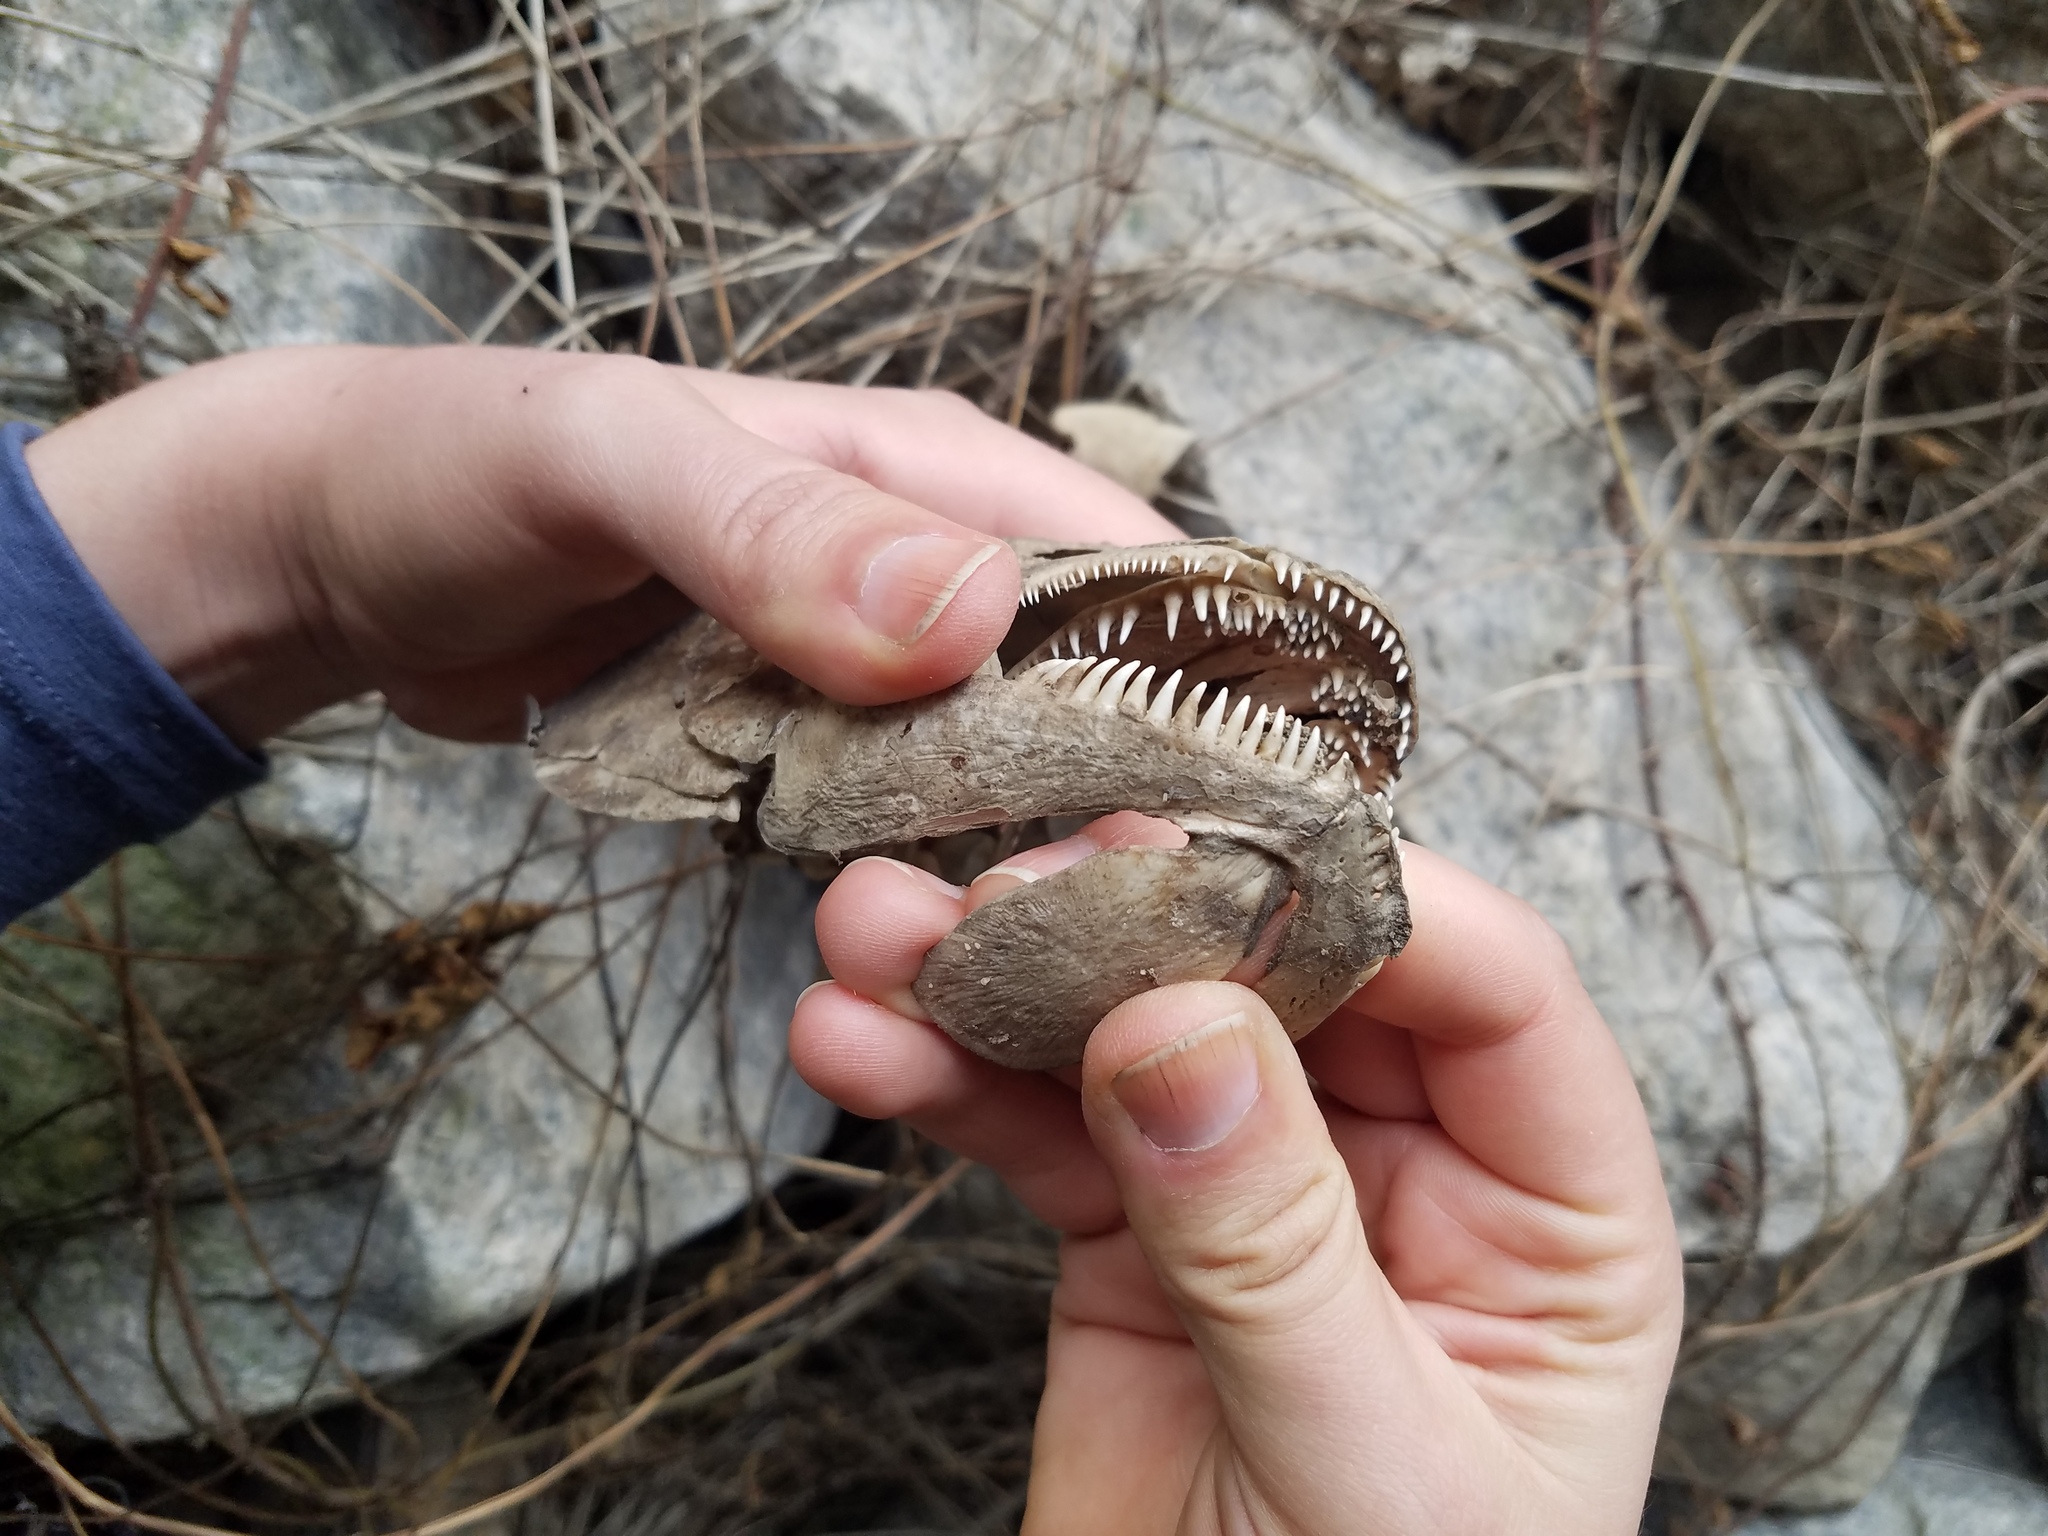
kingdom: Animalia
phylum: Chordata
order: Amiiformes
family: Amiidae
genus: Amia
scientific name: Amia calva
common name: Bowfin
